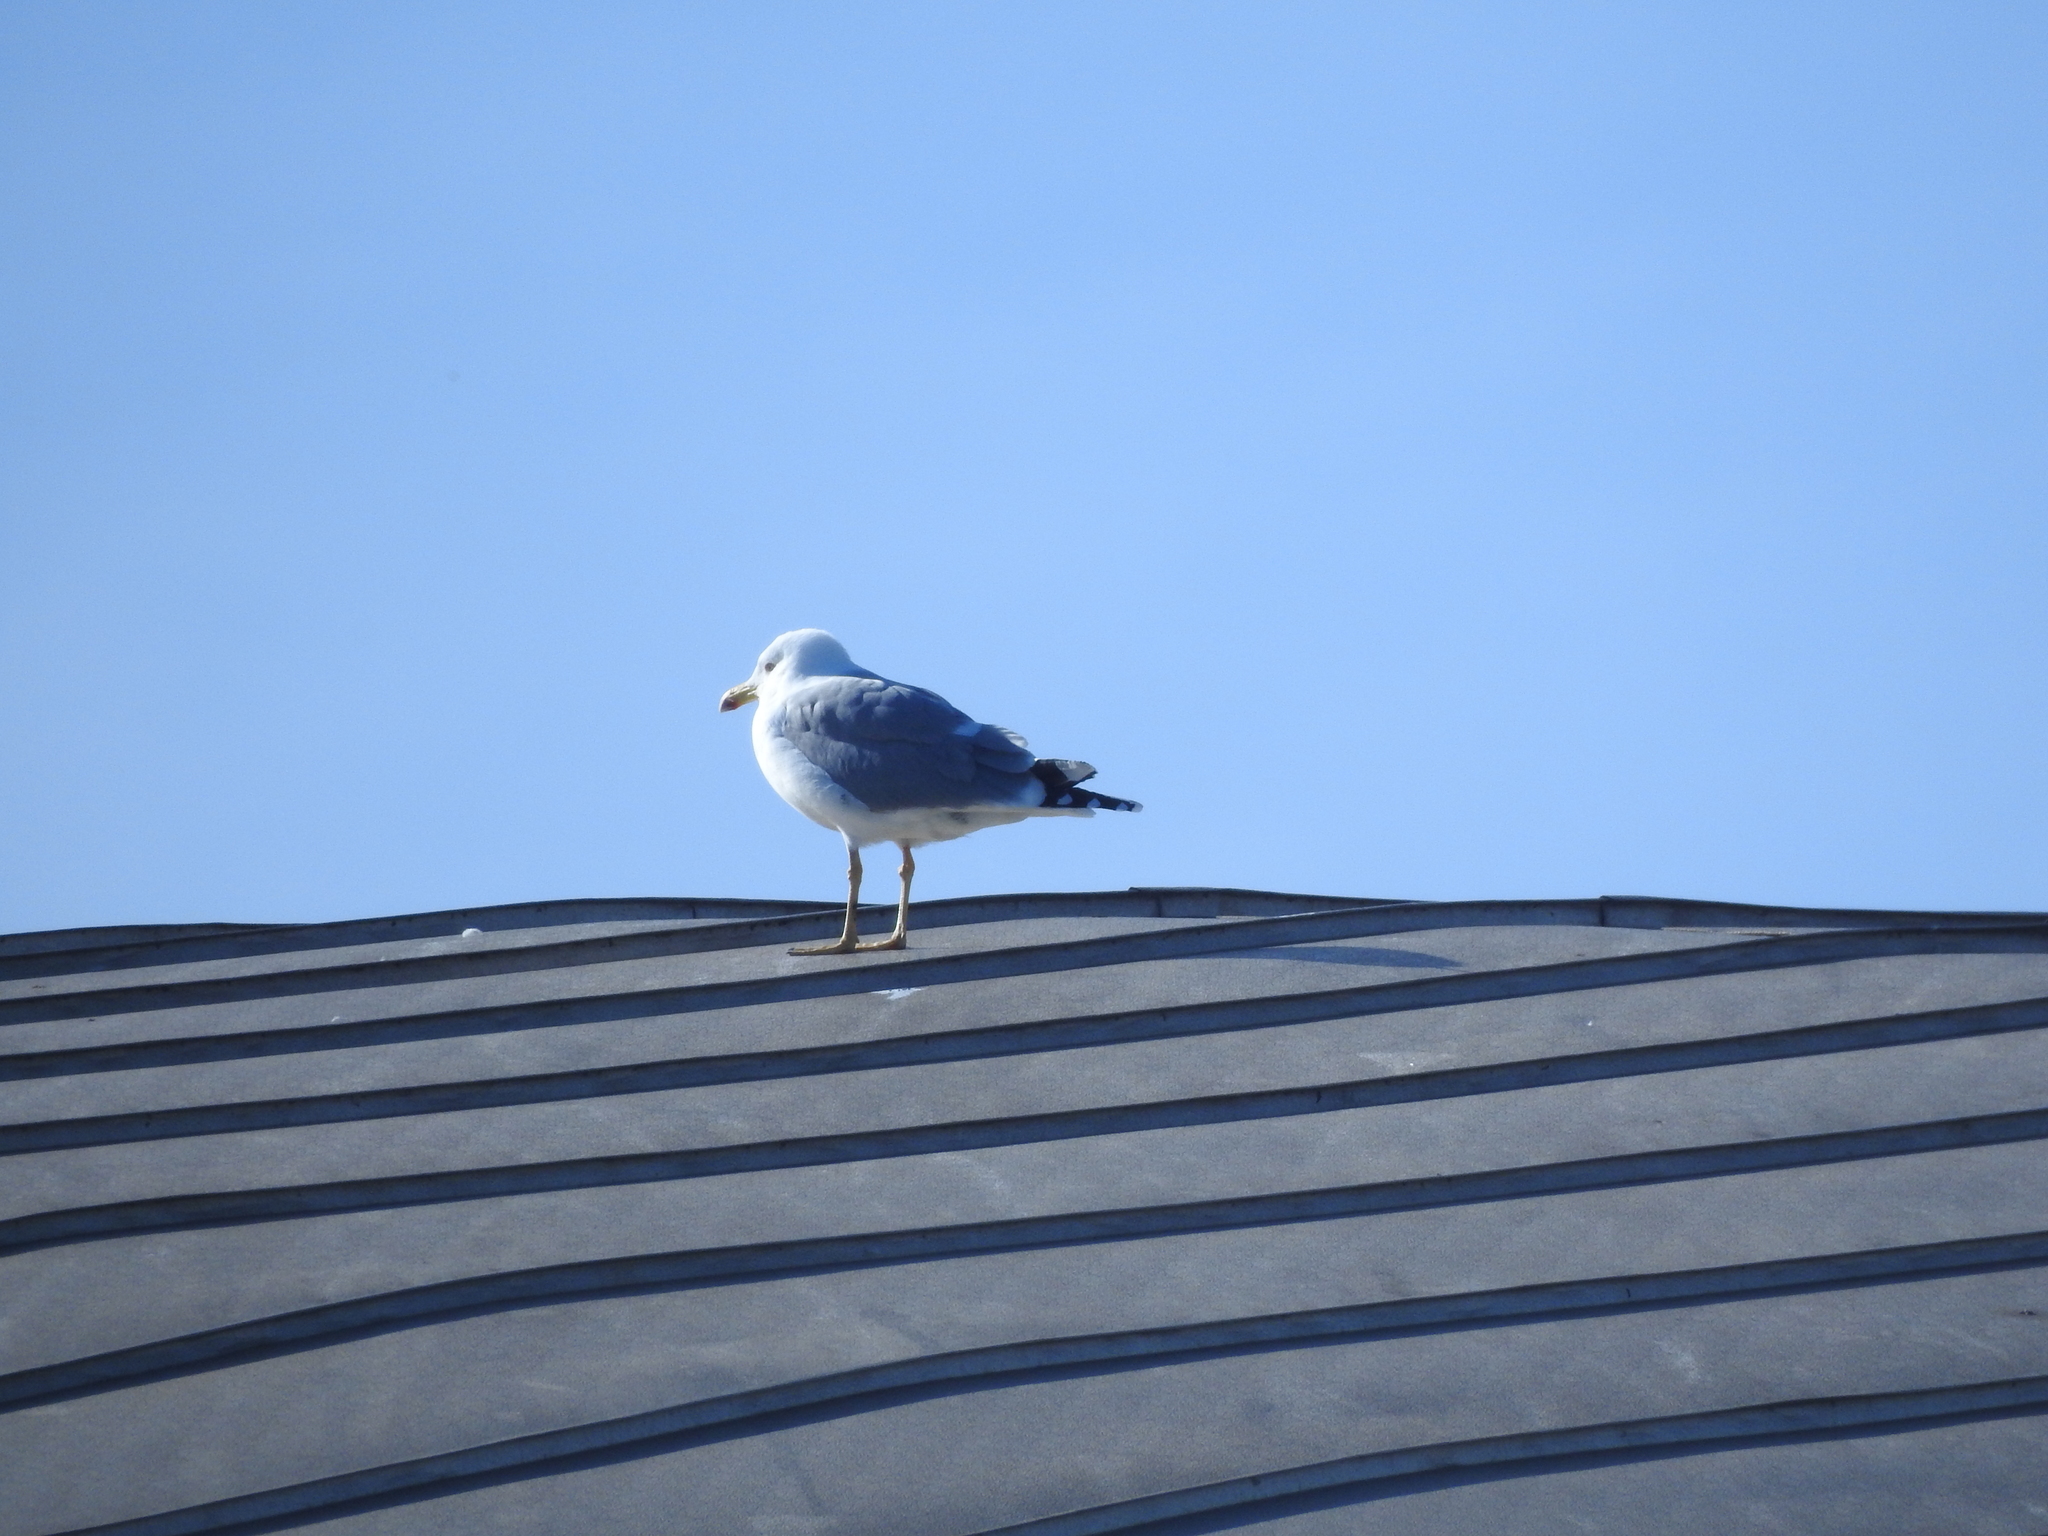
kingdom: Animalia
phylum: Chordata
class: Aves
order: Charadriiformes
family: Laridae
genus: Larus
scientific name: Larus michahellis
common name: Yellow-legged gull
